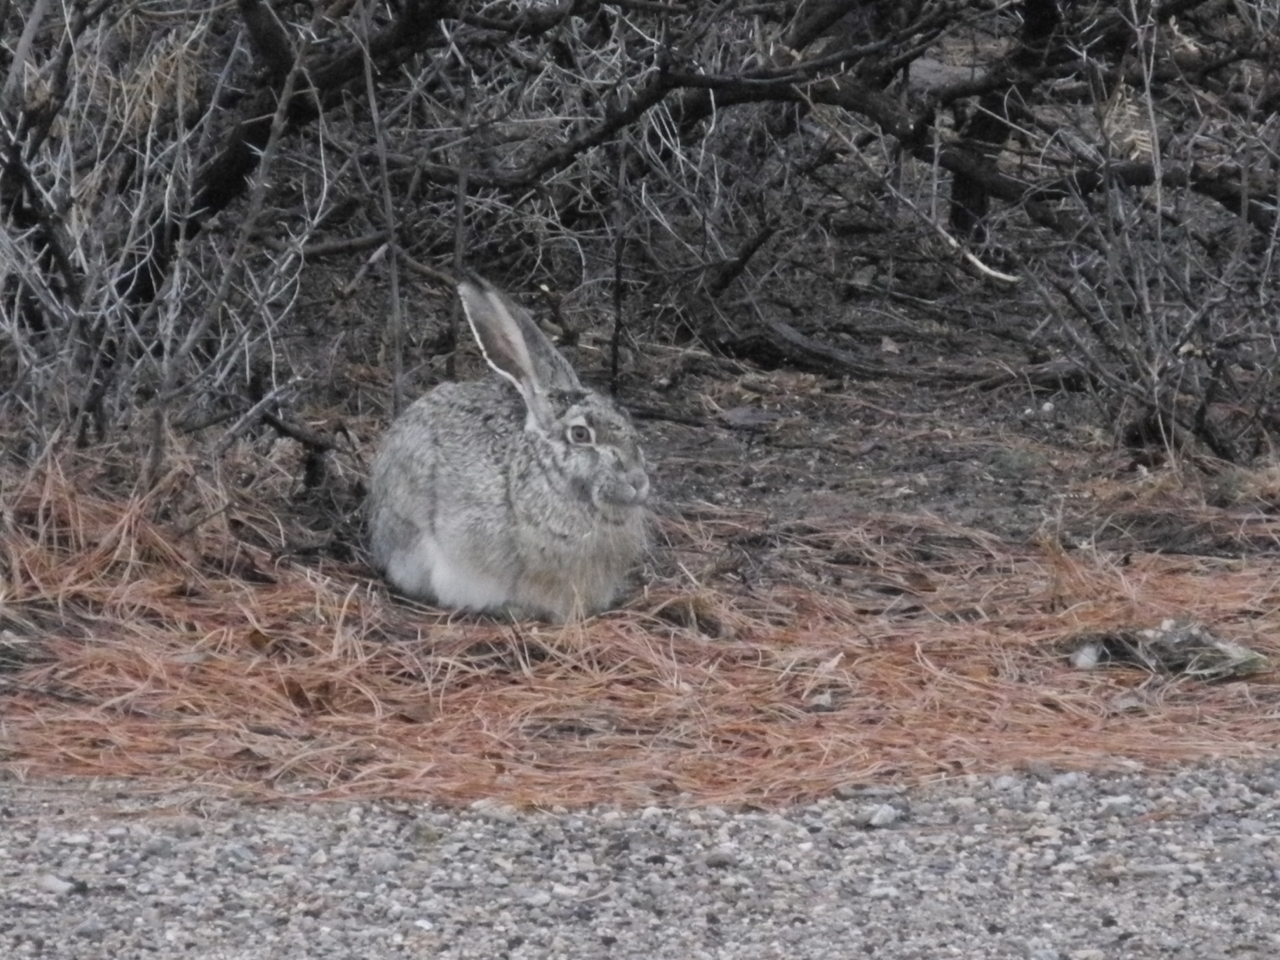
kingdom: Animalia
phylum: Chordata
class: Mammalia
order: Lagomorpha
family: Leporidae
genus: Lepus
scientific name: Lepus californicus
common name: Black-tailed jackrabbit
